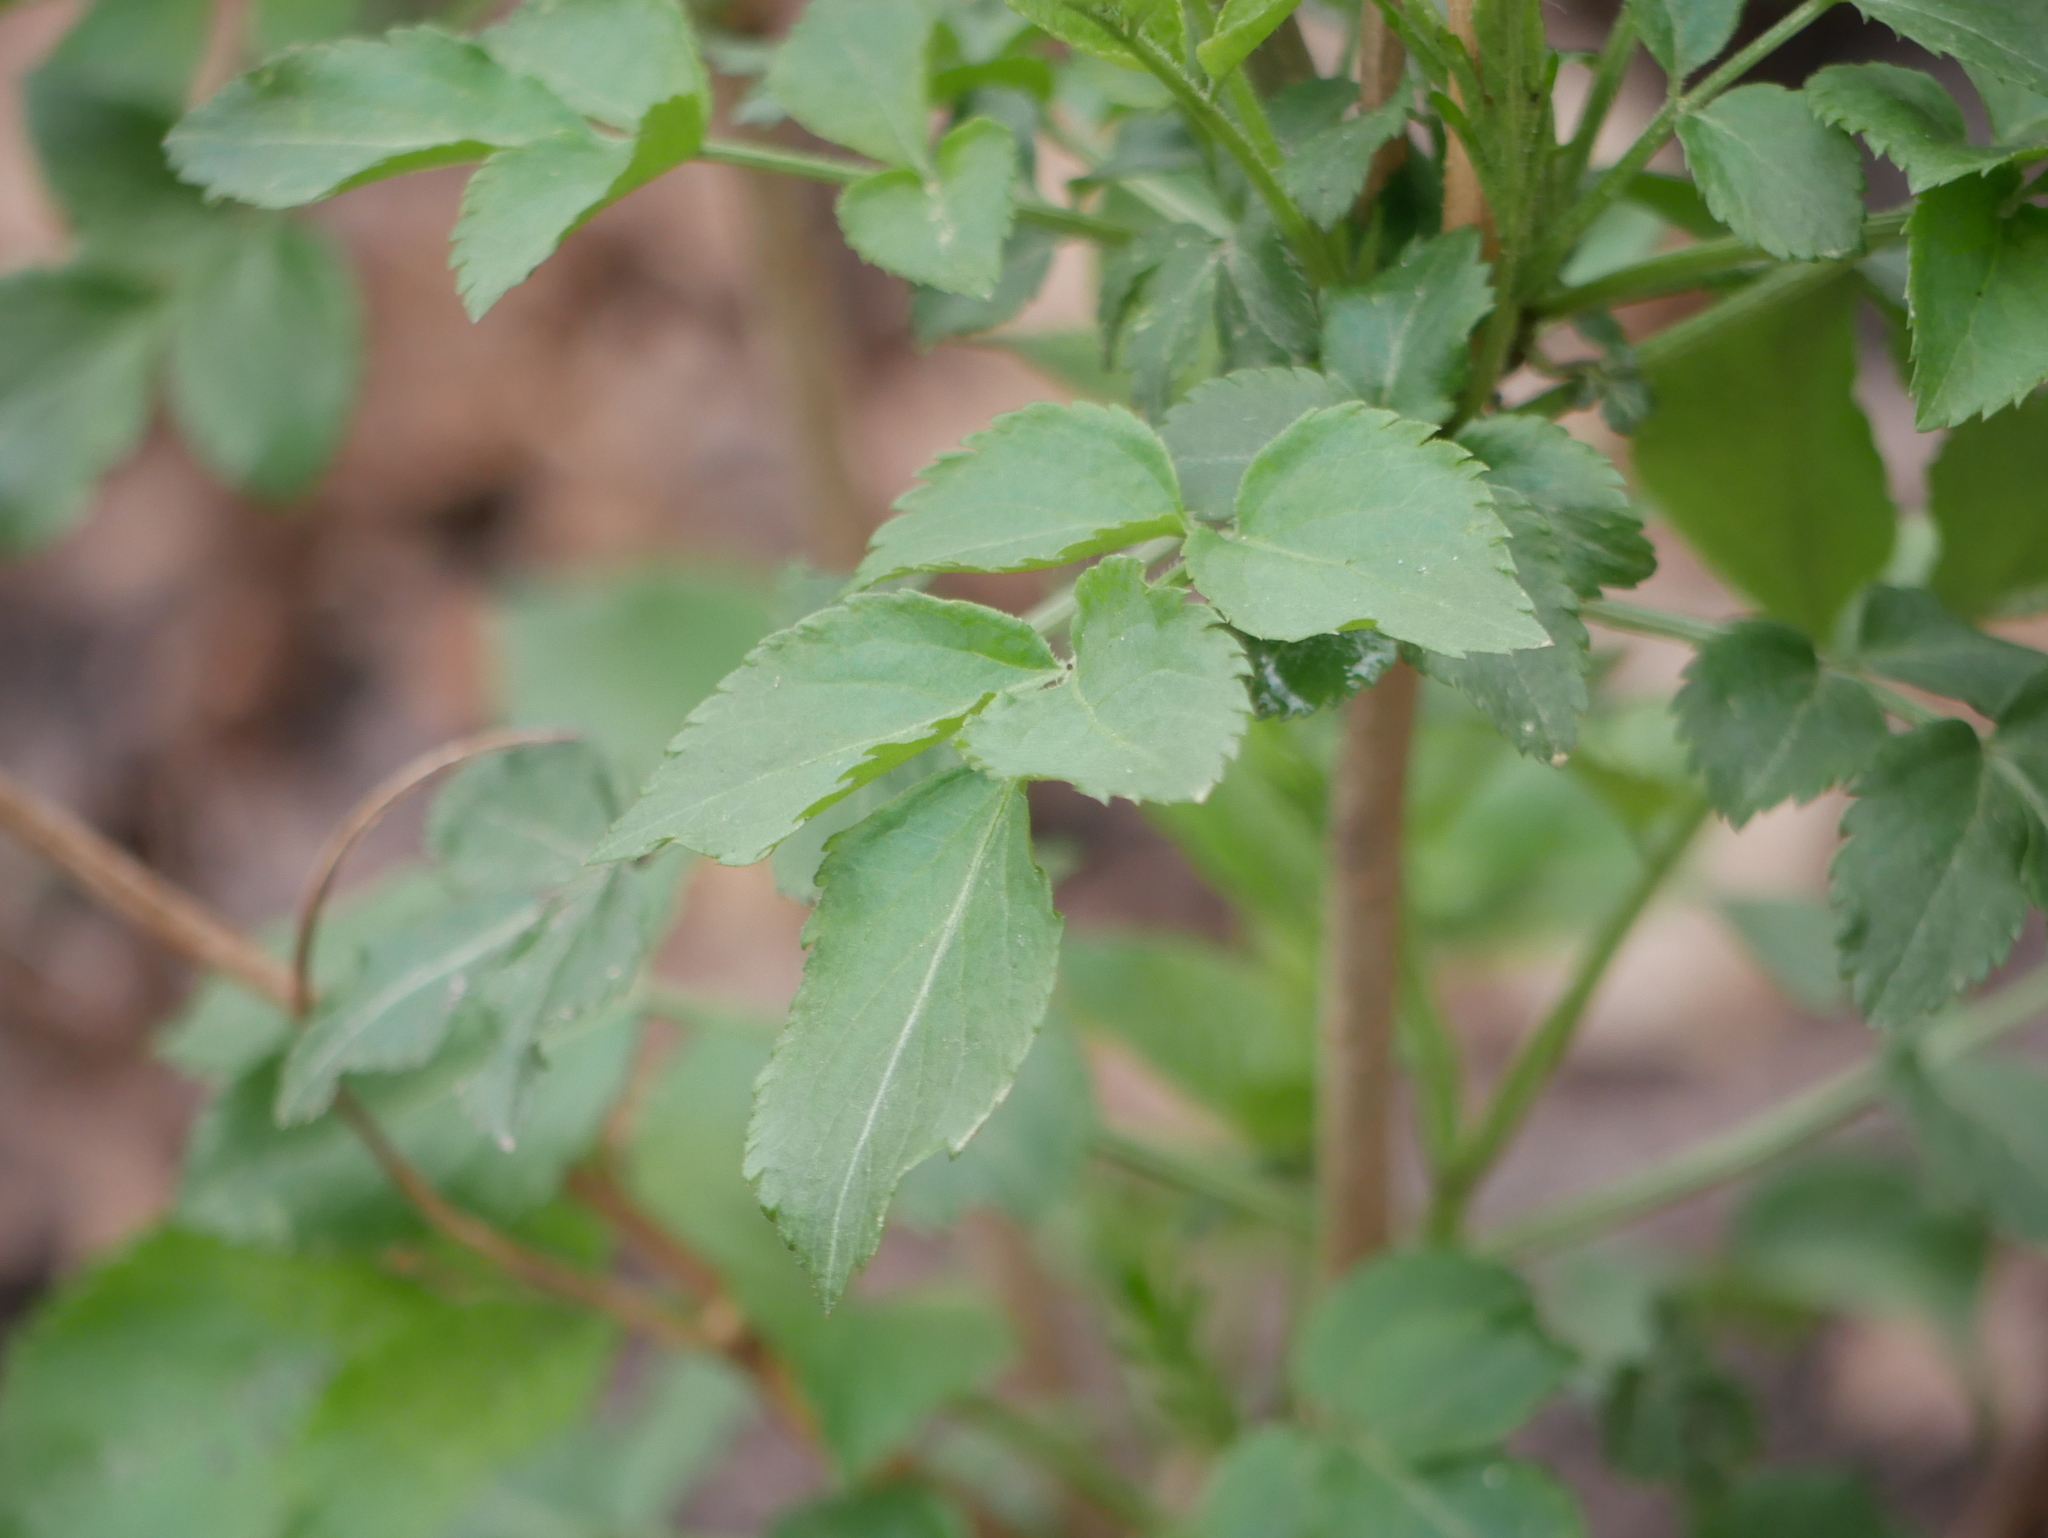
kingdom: Plantae
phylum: Tracheophyta
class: Magnoliopsida
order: Dipsacales
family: Viburnaceae
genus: Sambucus
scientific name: Sambucus nigra
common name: Elder
